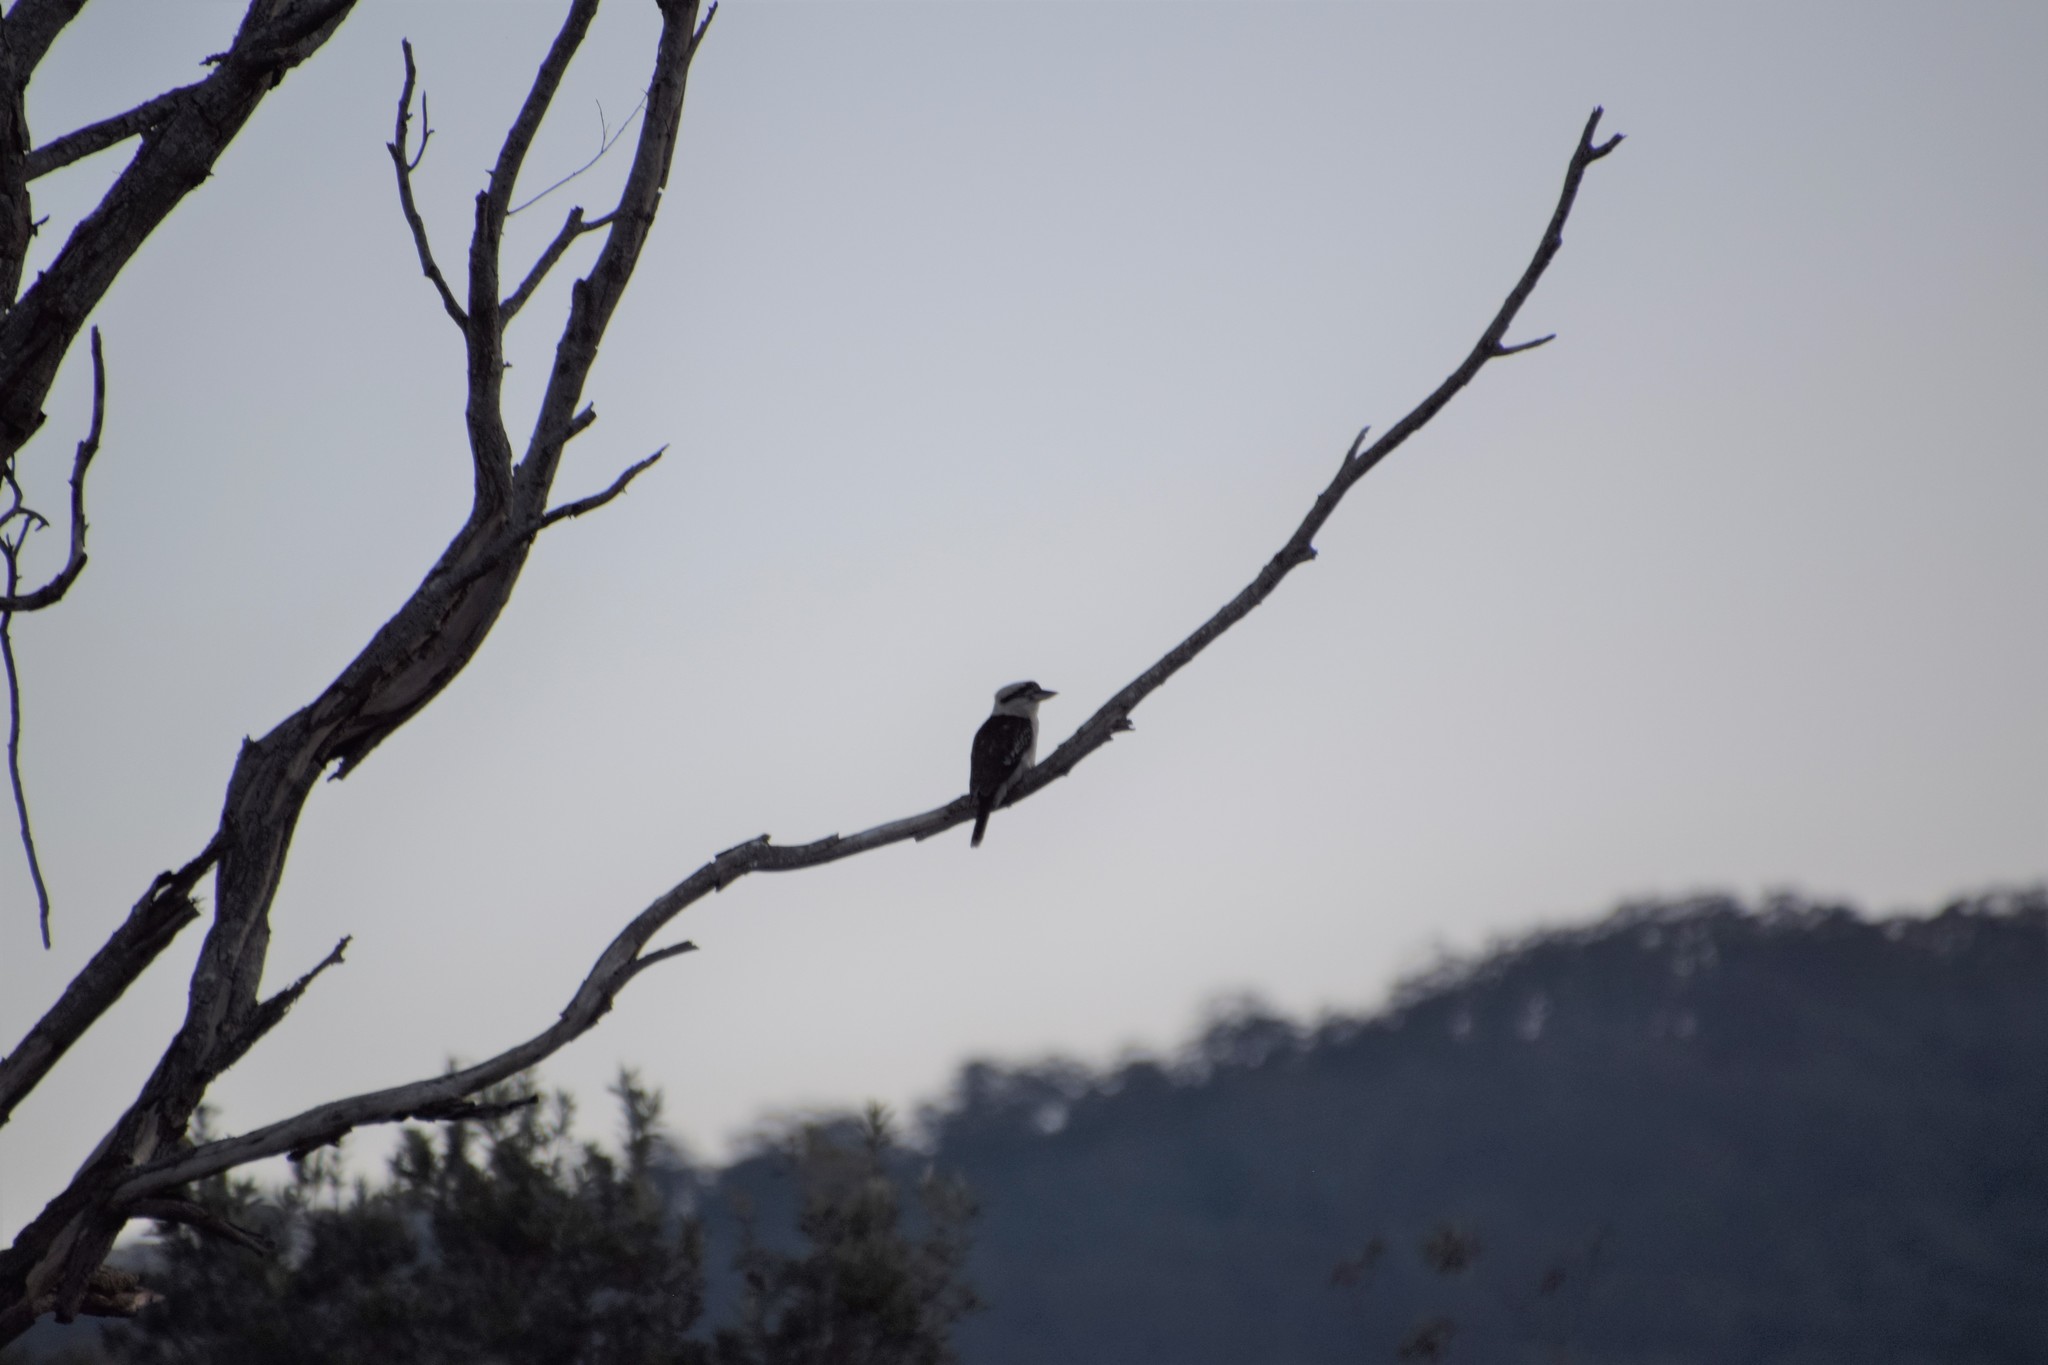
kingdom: Animalia
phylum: Chordata
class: Aves
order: Coraciiformes
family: Alcedinidae
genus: Dacelo
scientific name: Dacelo novaeguineae
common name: Laughing kookaburra
